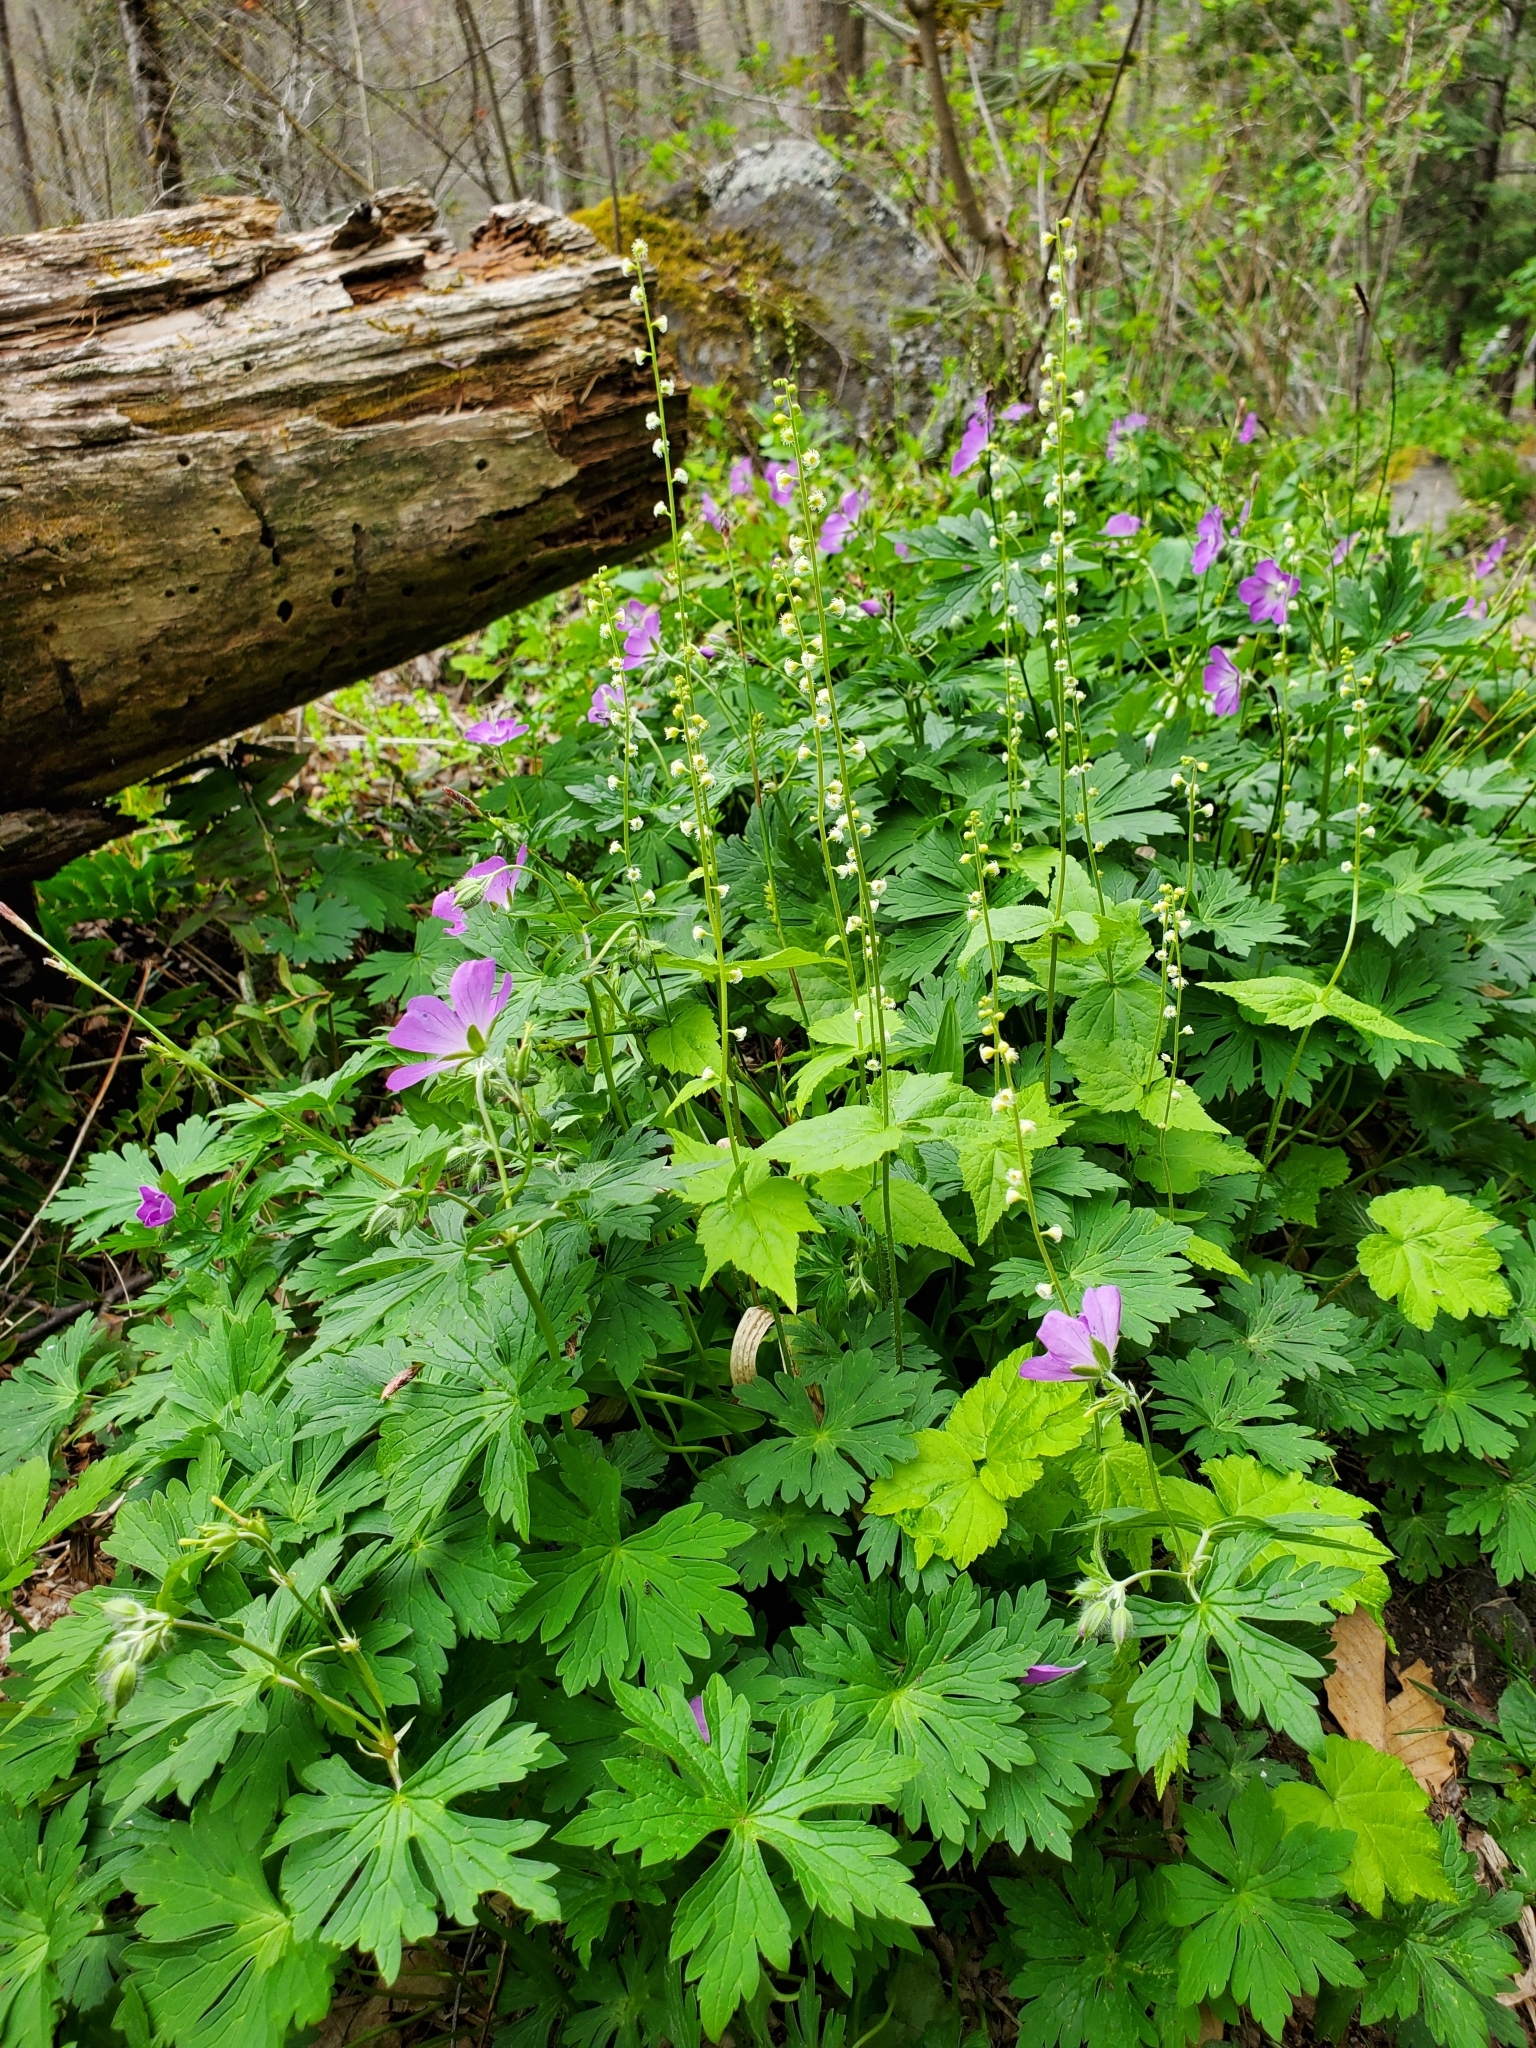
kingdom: Plantae
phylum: Tracheophyta
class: Magnoliopsida
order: Geraniales
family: Geraniaceae
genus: Geranium
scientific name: Geranium maculatum
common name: Spotted geranium
